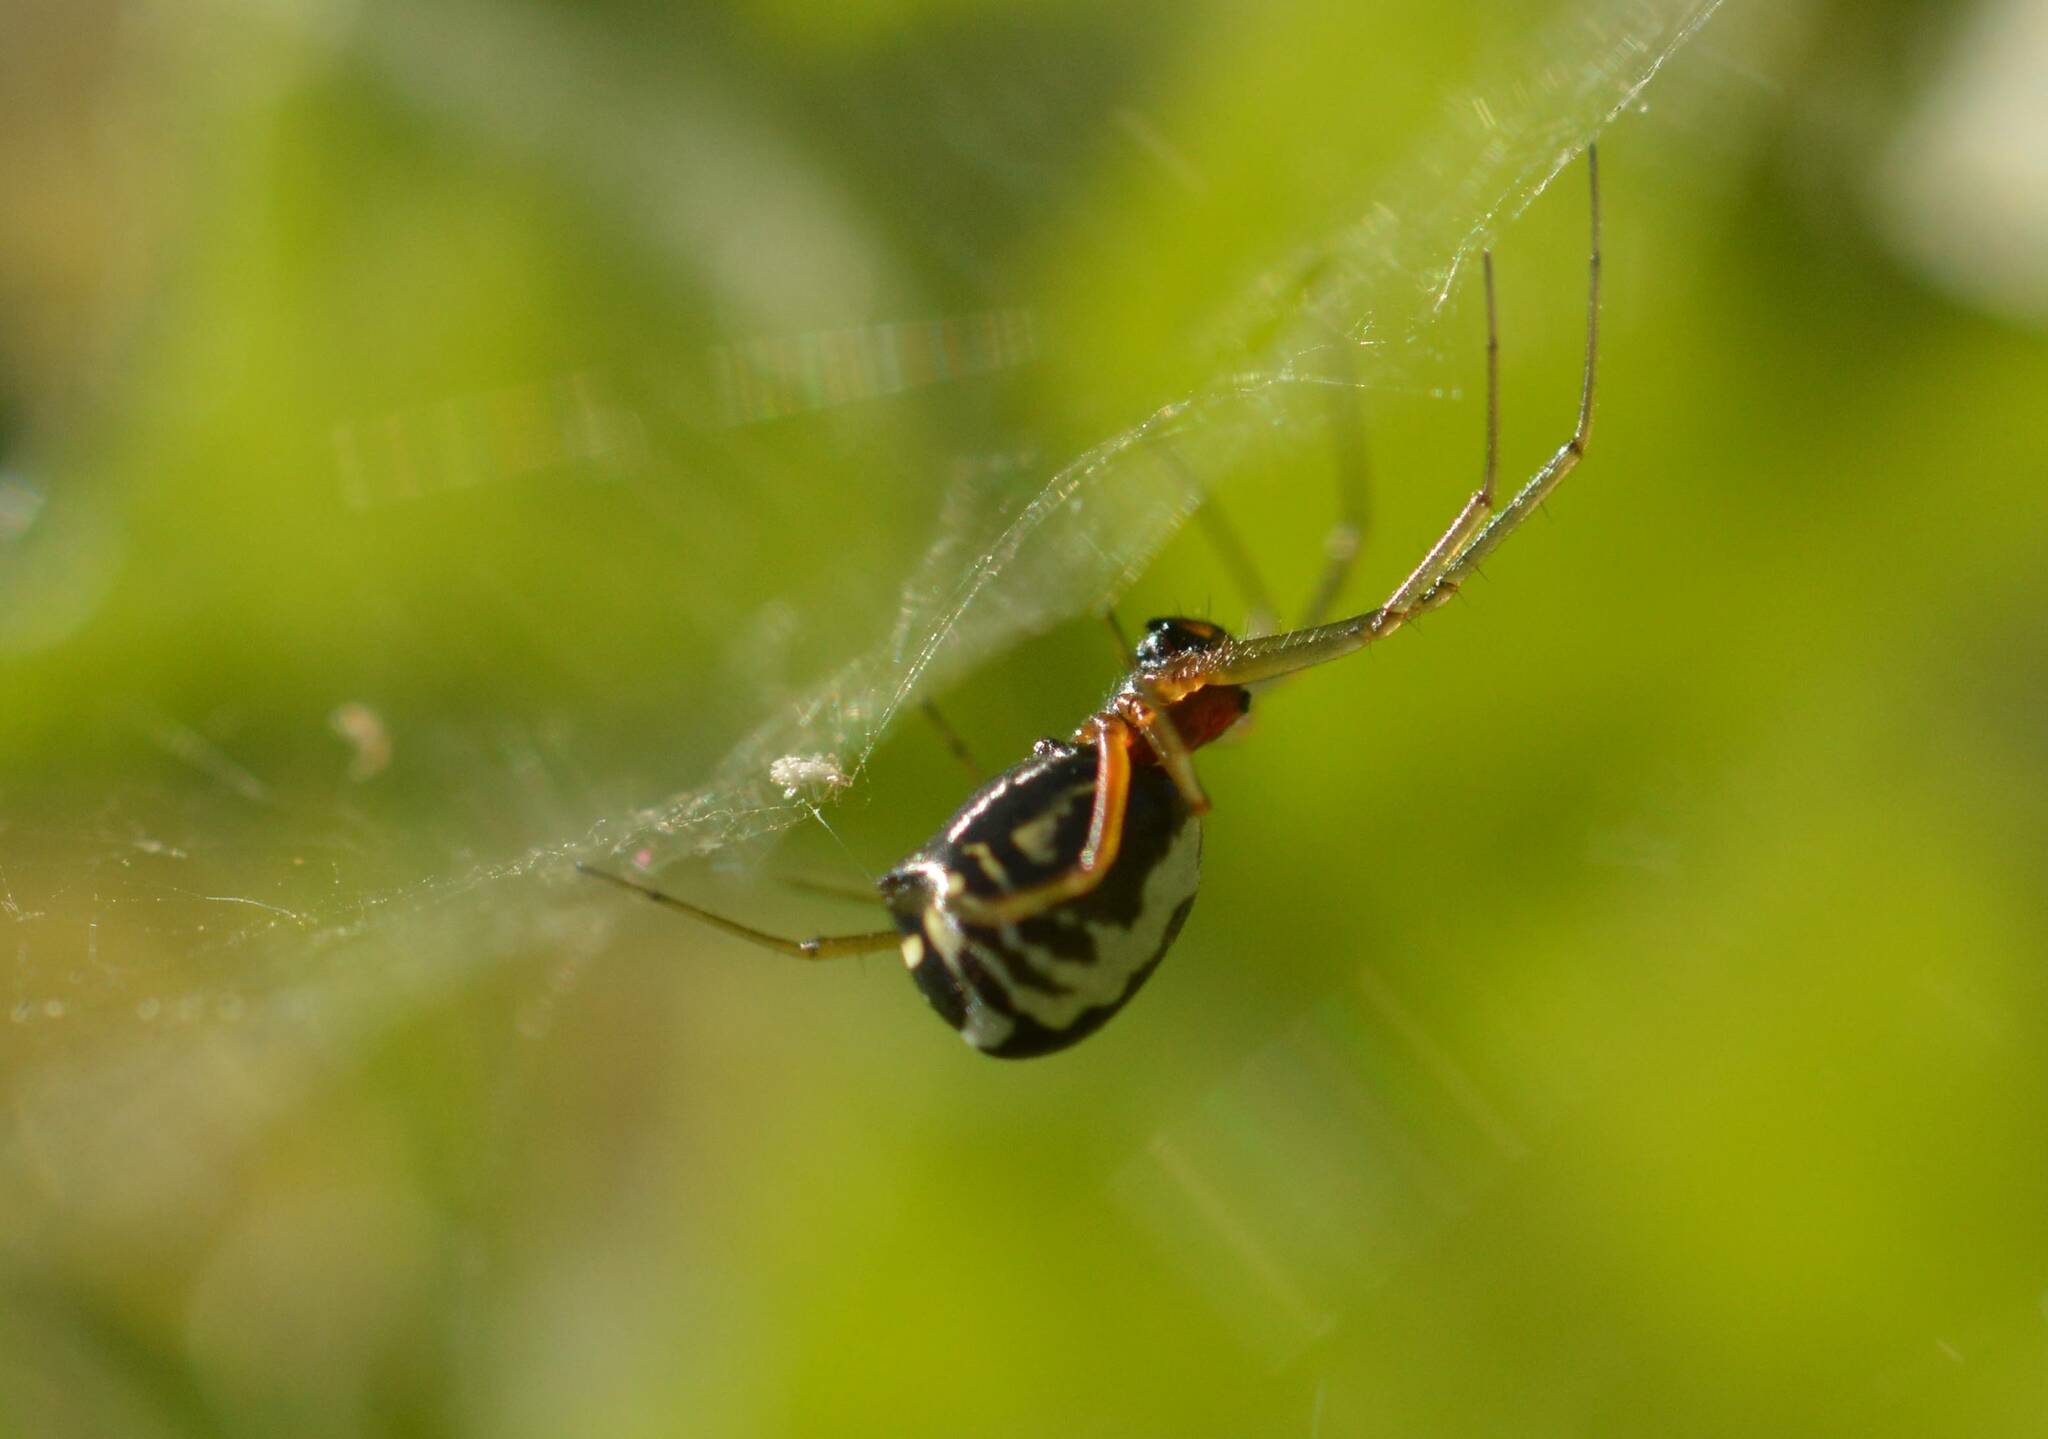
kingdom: Animalia
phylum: Arthropoda
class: Arachnida
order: Araneae
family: Linyphiidae
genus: Frontinellina
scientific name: Frontinellina frutetorum
